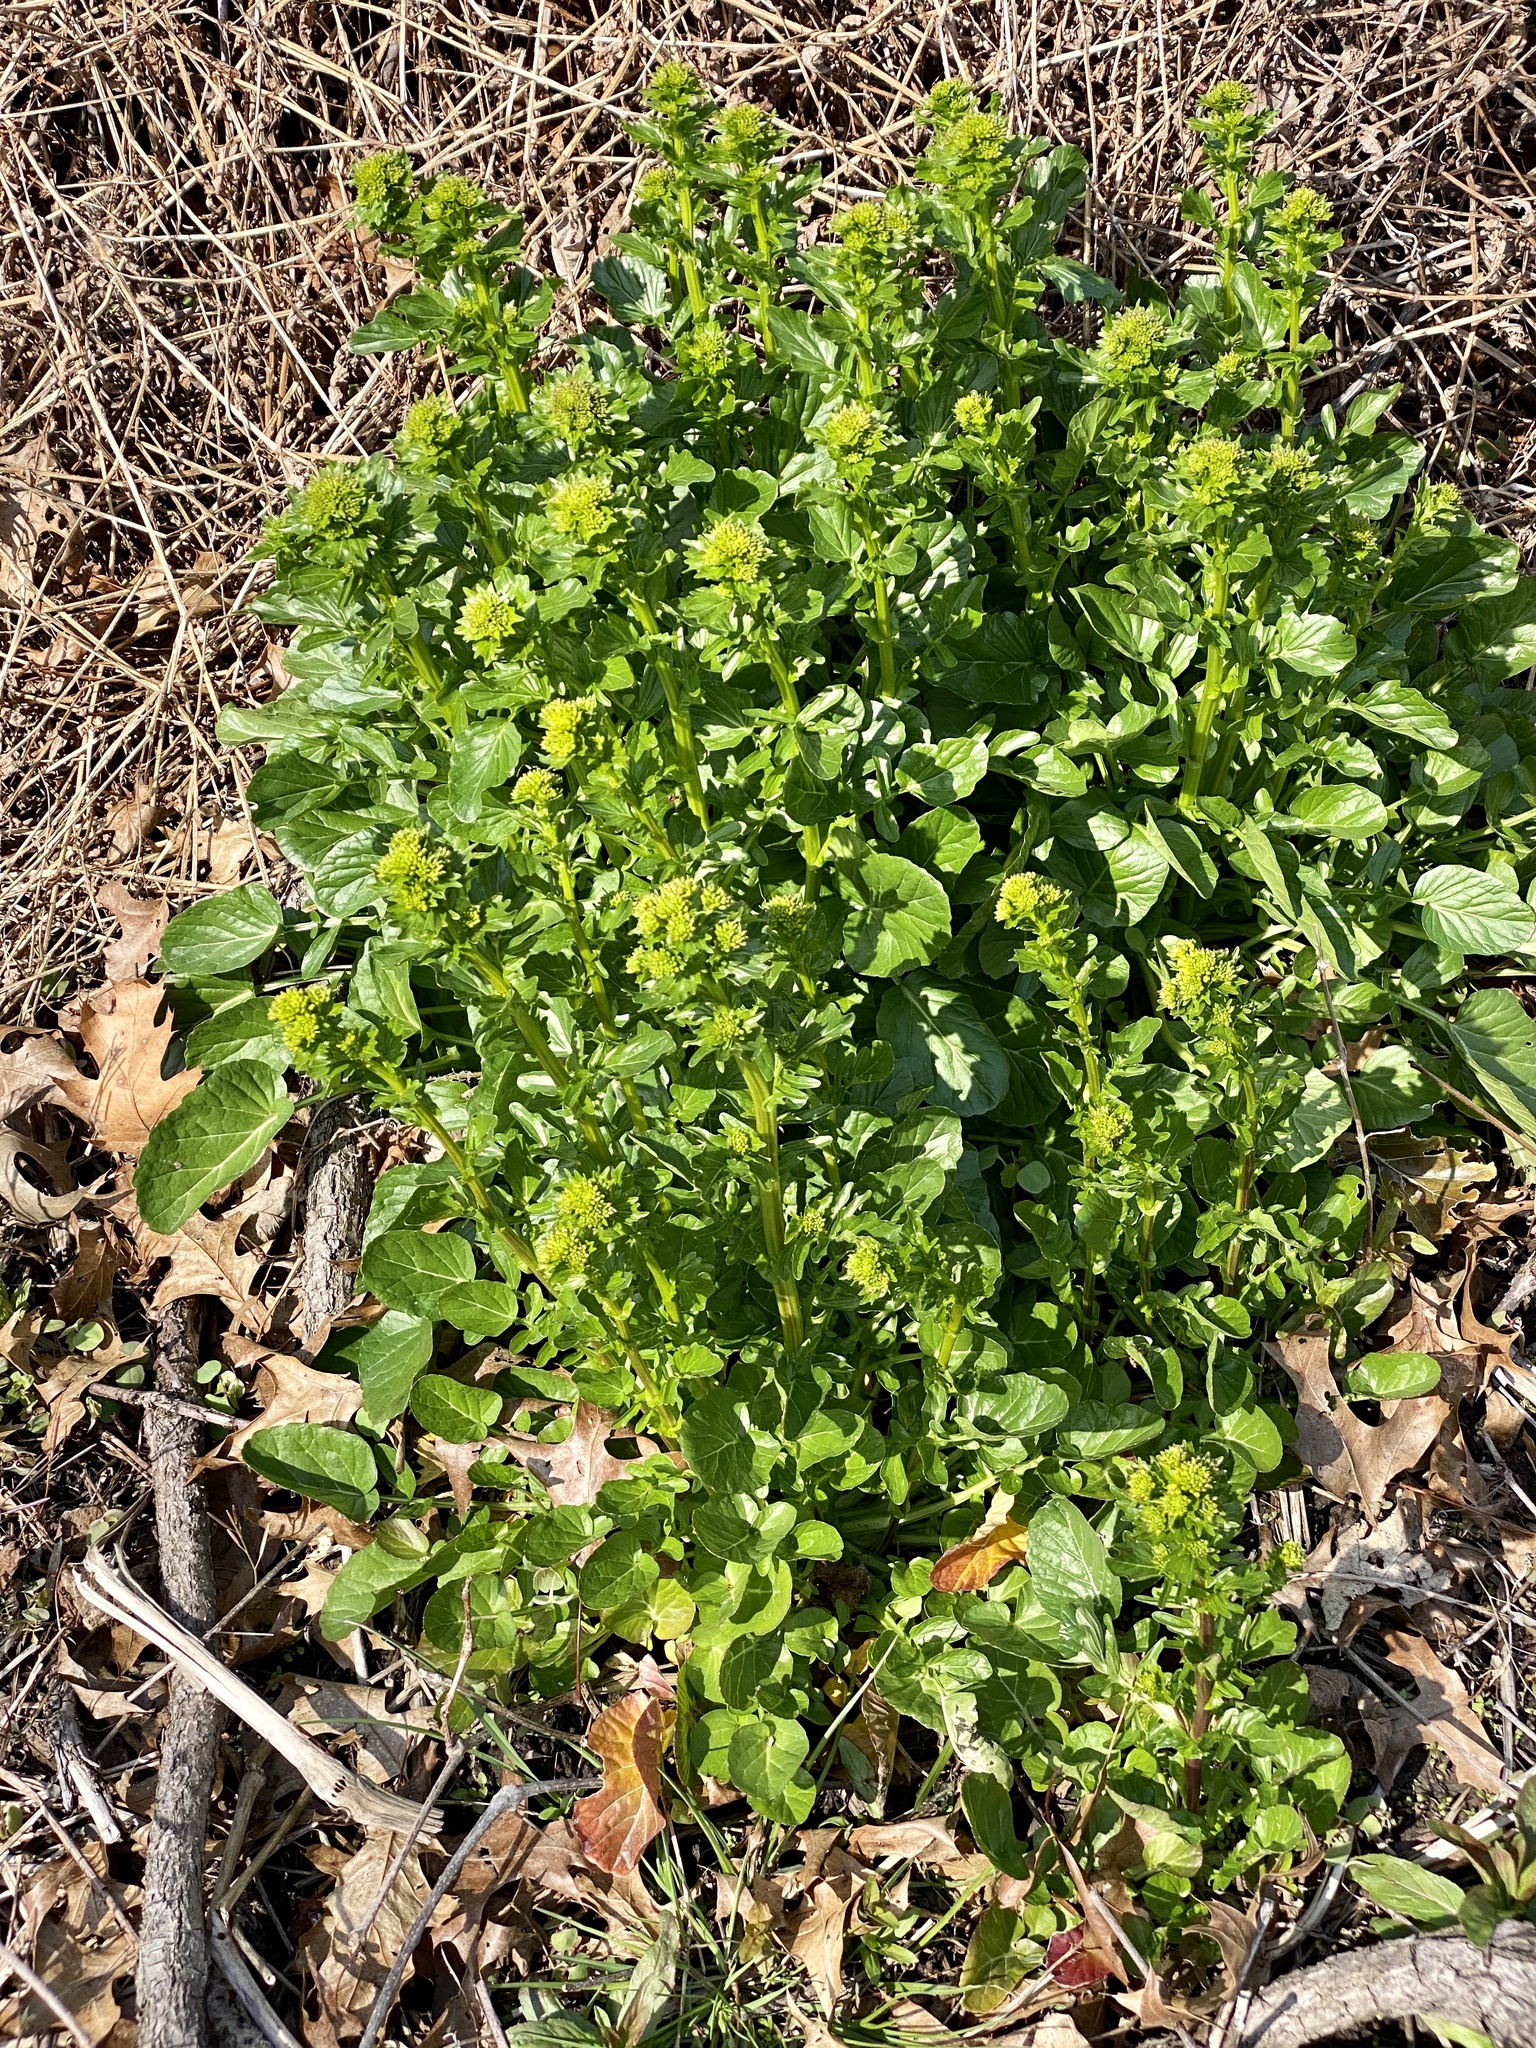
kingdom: Plantae
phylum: Tracheophyta
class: Magnoliopsida
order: Brassicales
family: Brassicaceae
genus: Barbarea
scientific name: Barbarea vulgaris
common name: Cressy-greens
